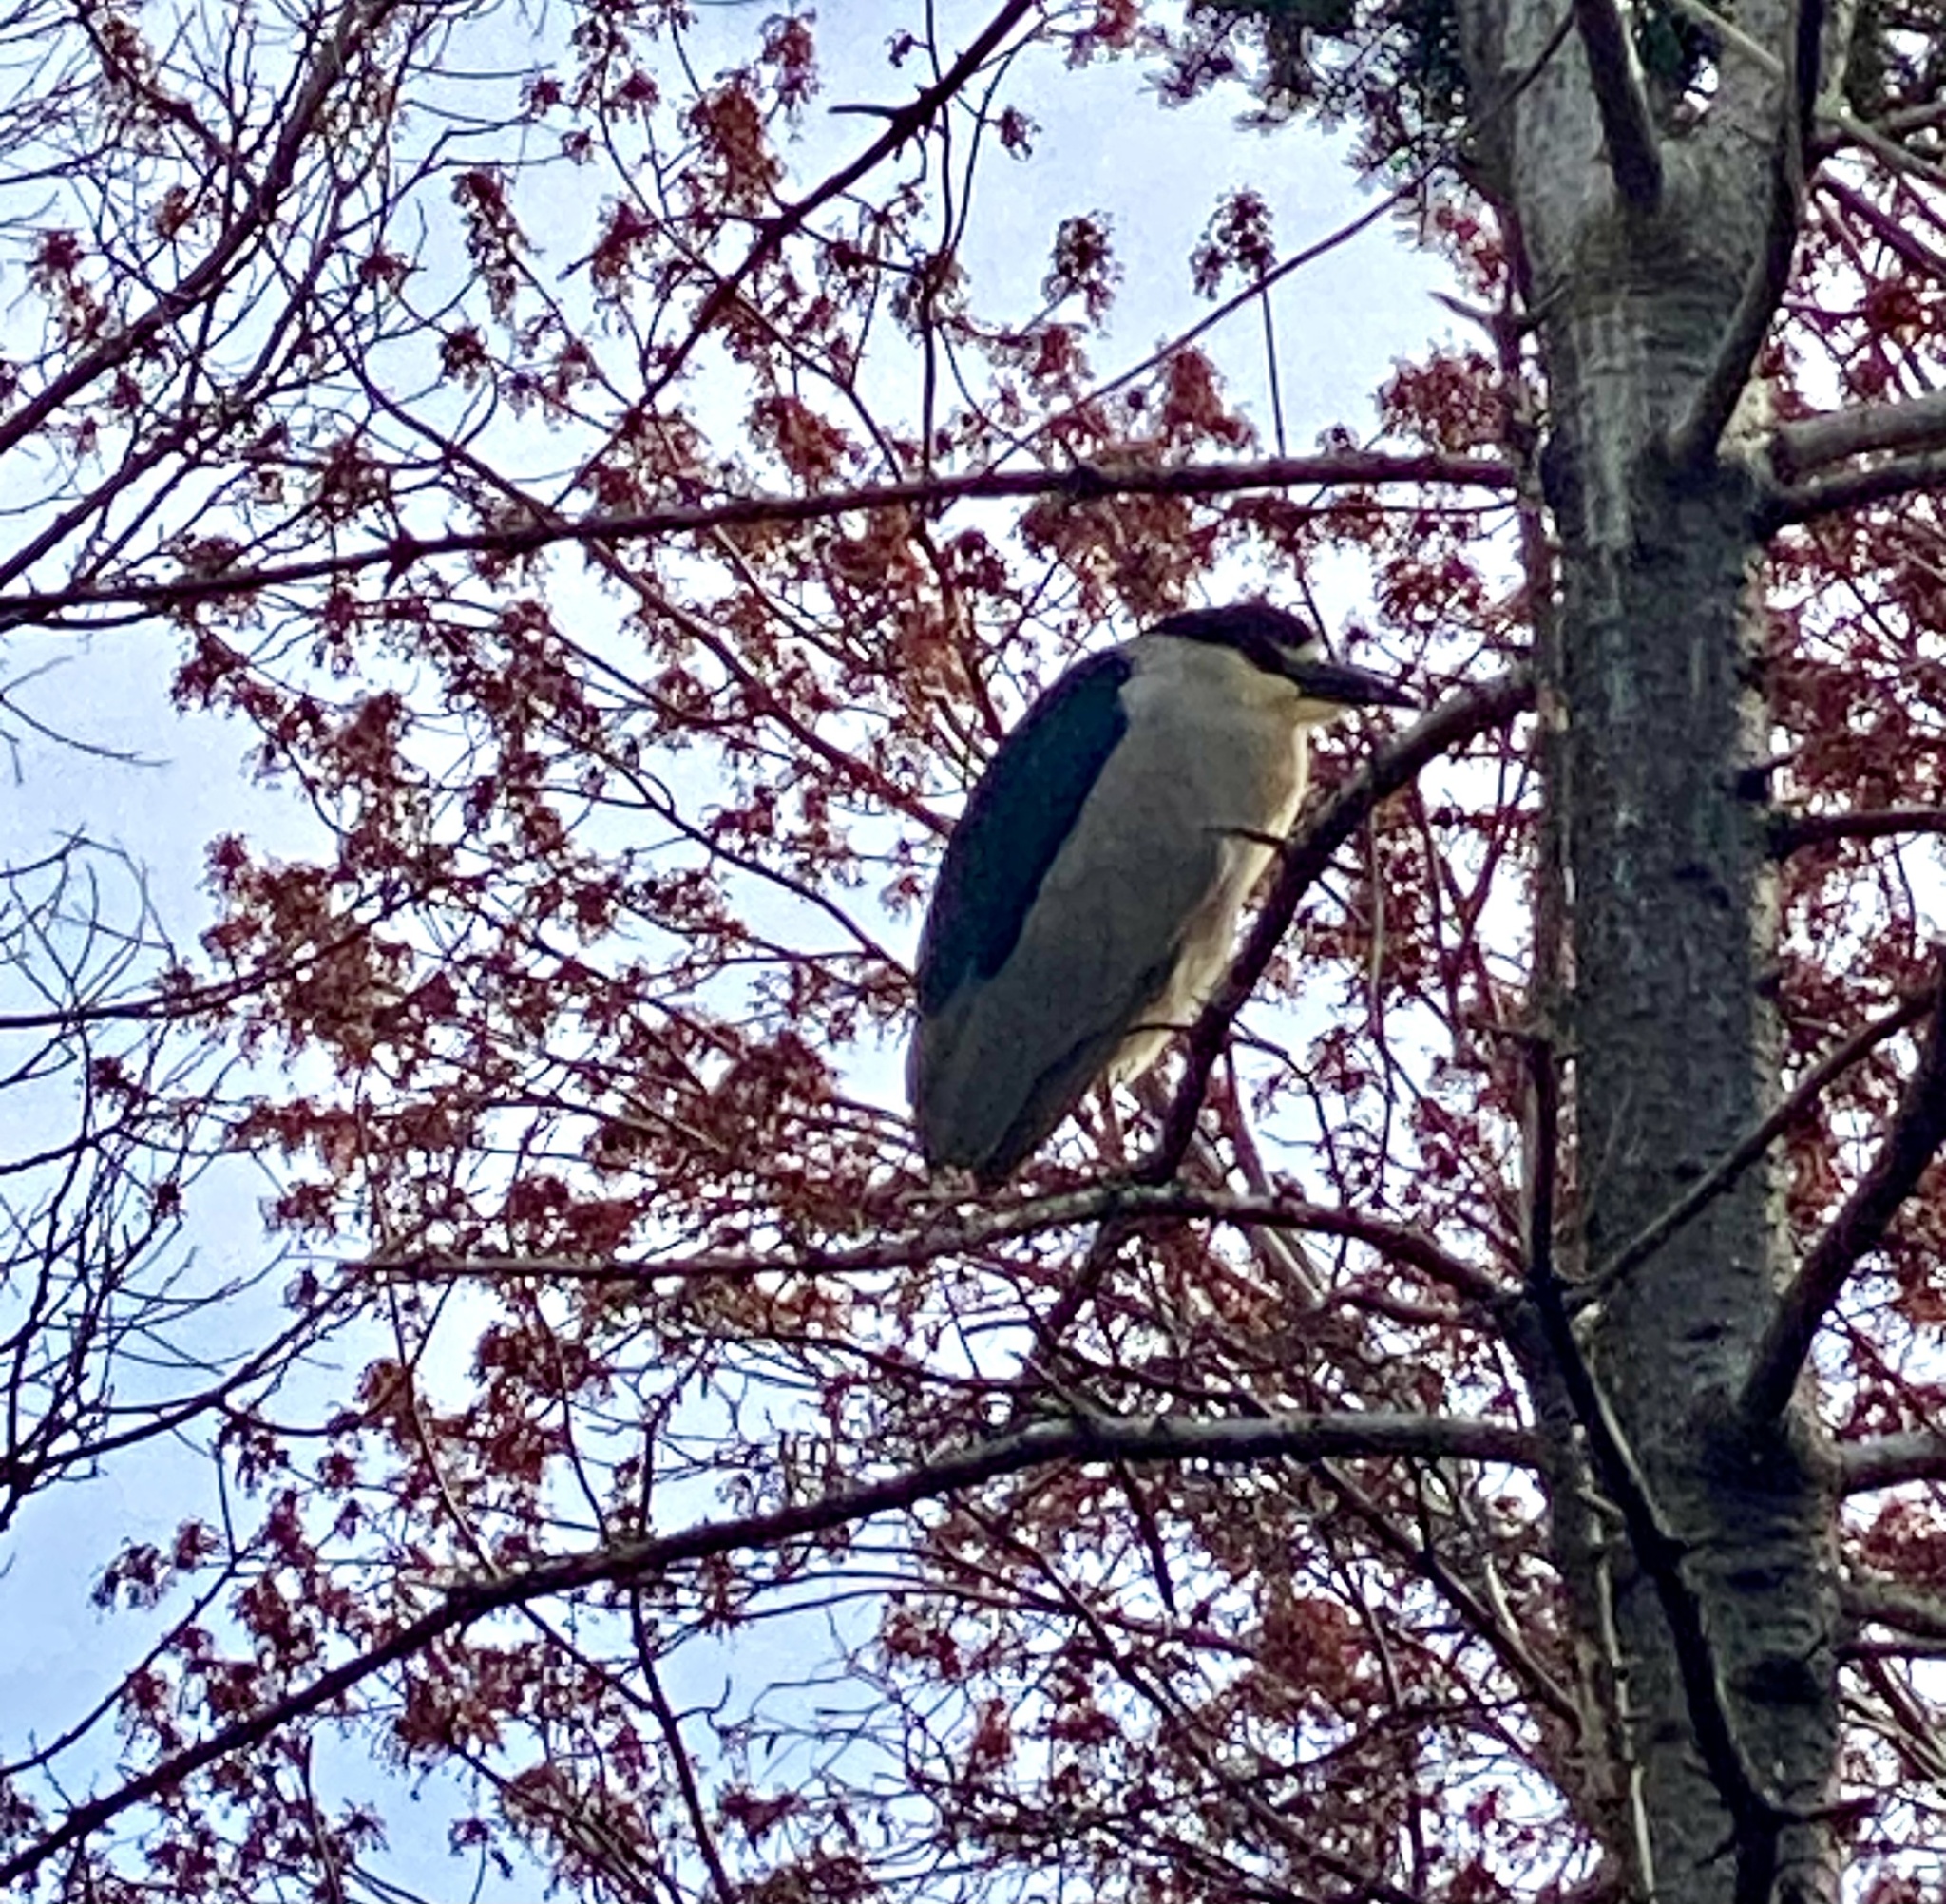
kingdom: Animalia
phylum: Chordata
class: Aves
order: Pelecaniformes
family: Ardeidae
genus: Nycticorax
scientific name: Nycticorax nycticorax
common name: Black-crowned night heron
